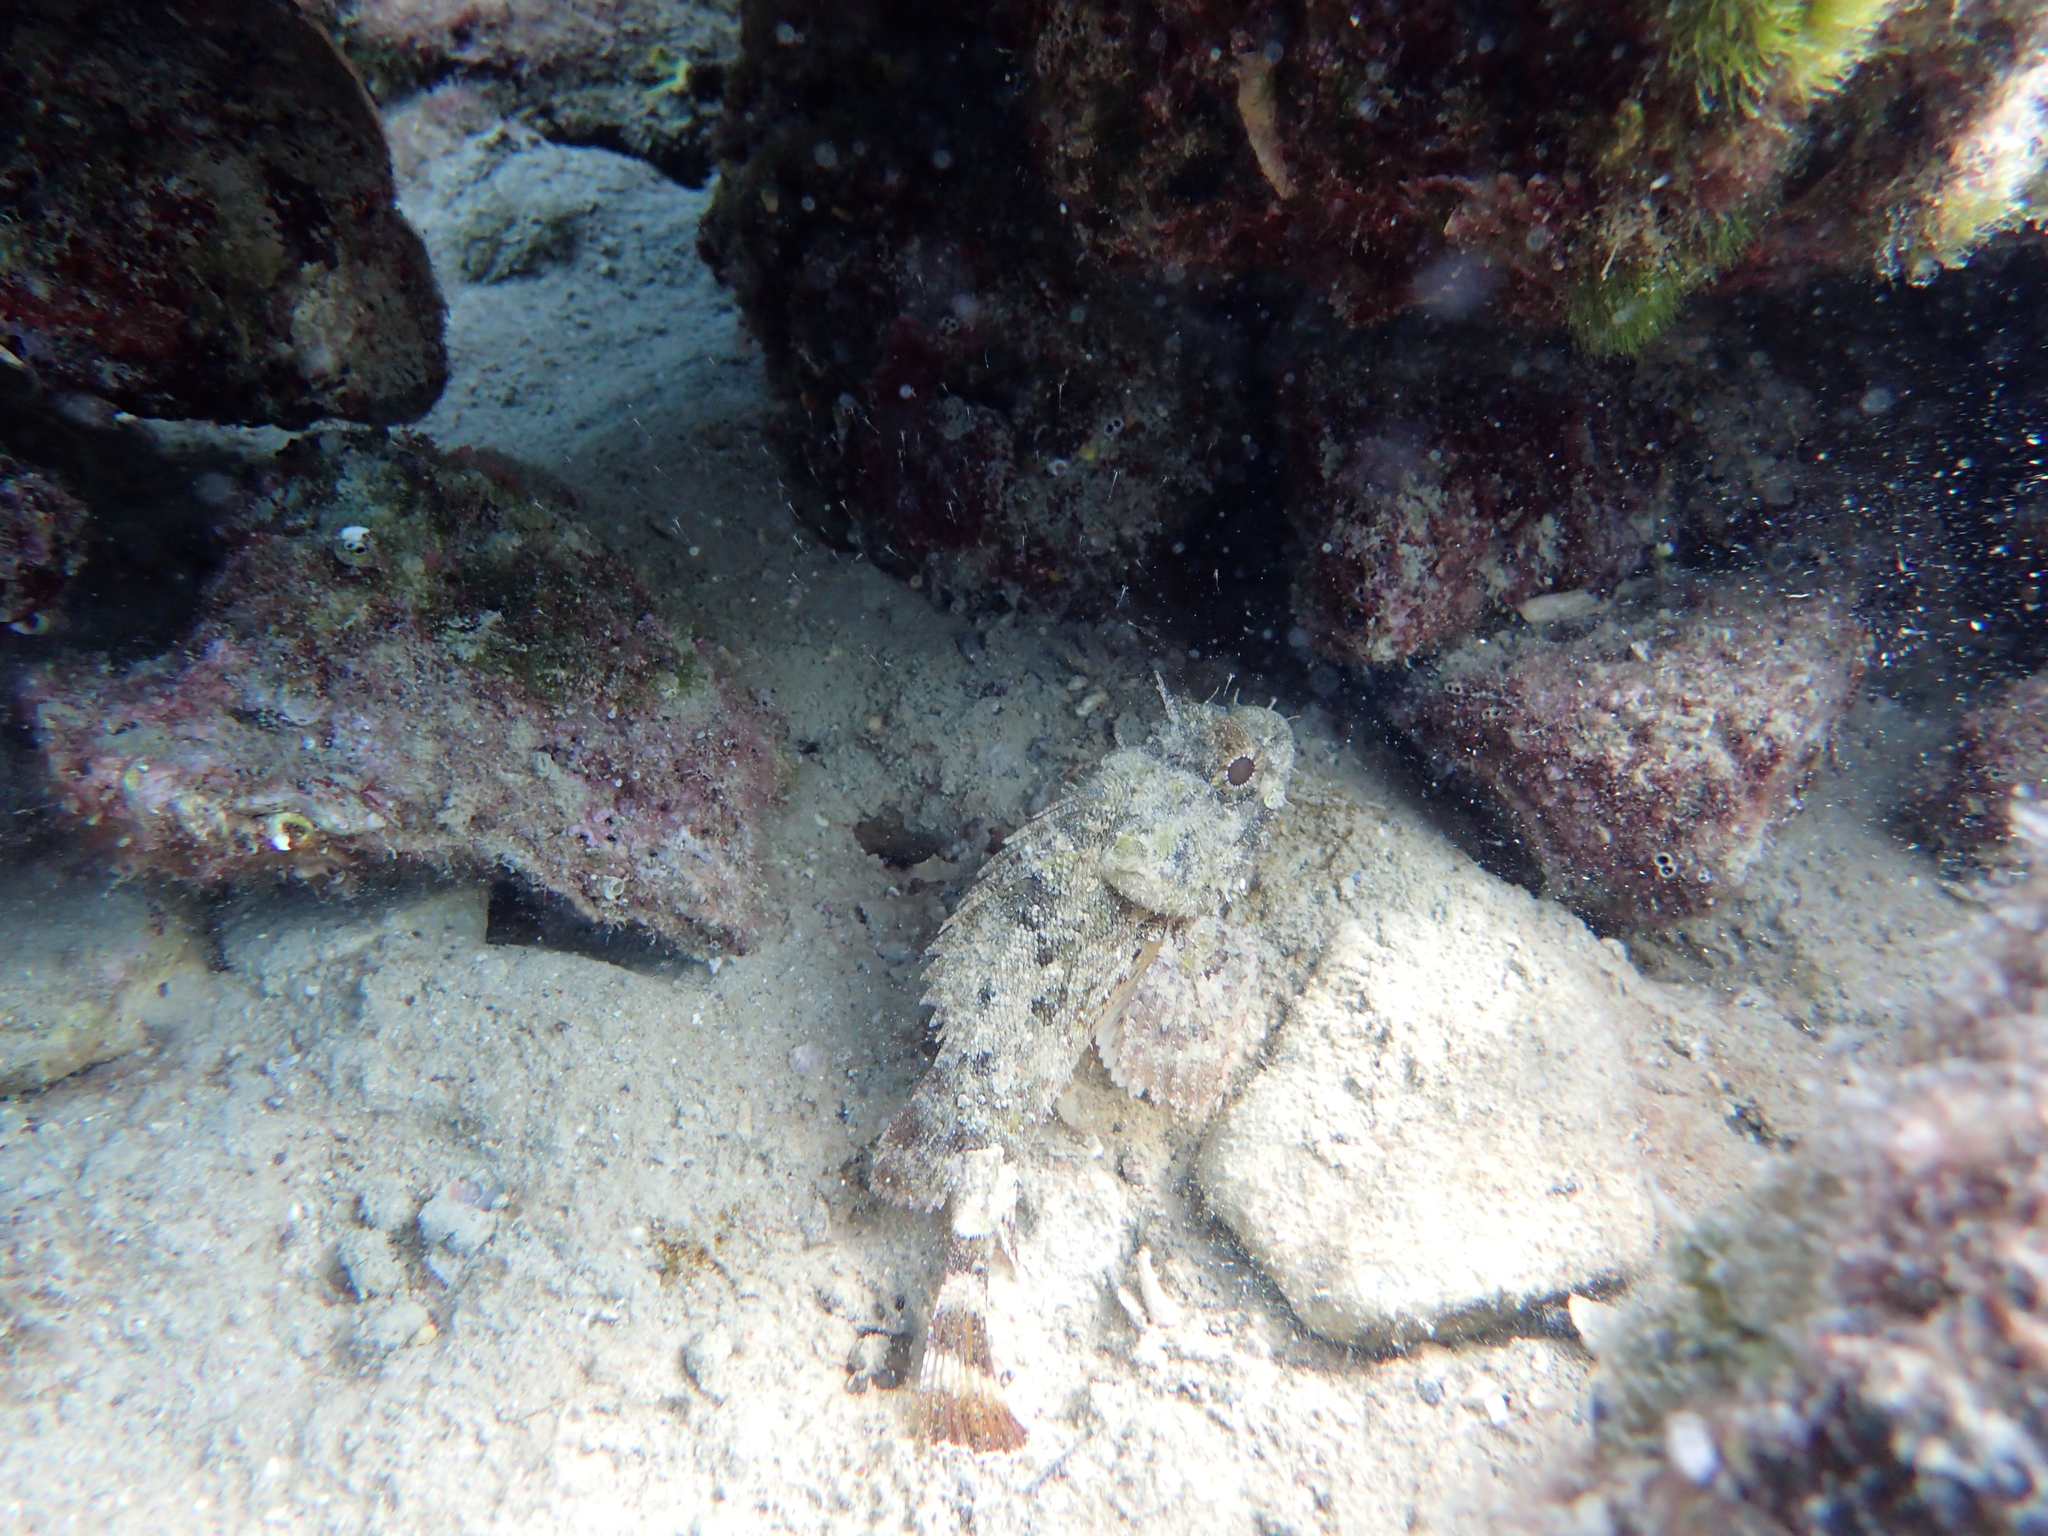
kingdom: Animalia
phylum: Chordata
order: Scorpaeniformes
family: Scorpaenidae
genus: Scorpaena
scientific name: Scorpaena porcus
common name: Black scorpionfish
